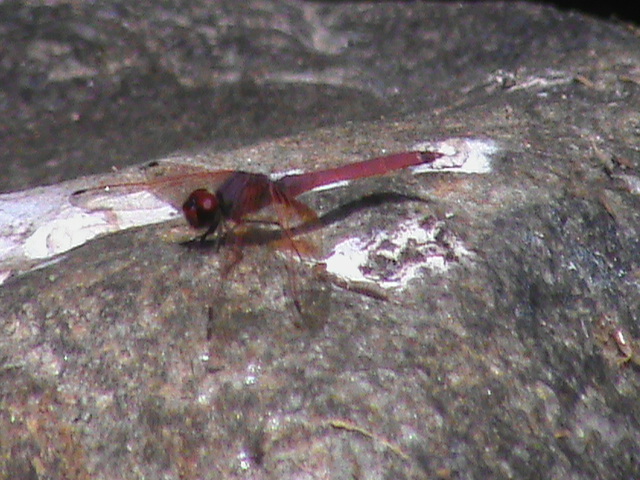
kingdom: Animalia
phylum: Arthropoda
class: Insecta
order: Odonata
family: Libellulidae
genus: Trithemis
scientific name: Trithemis aurora
